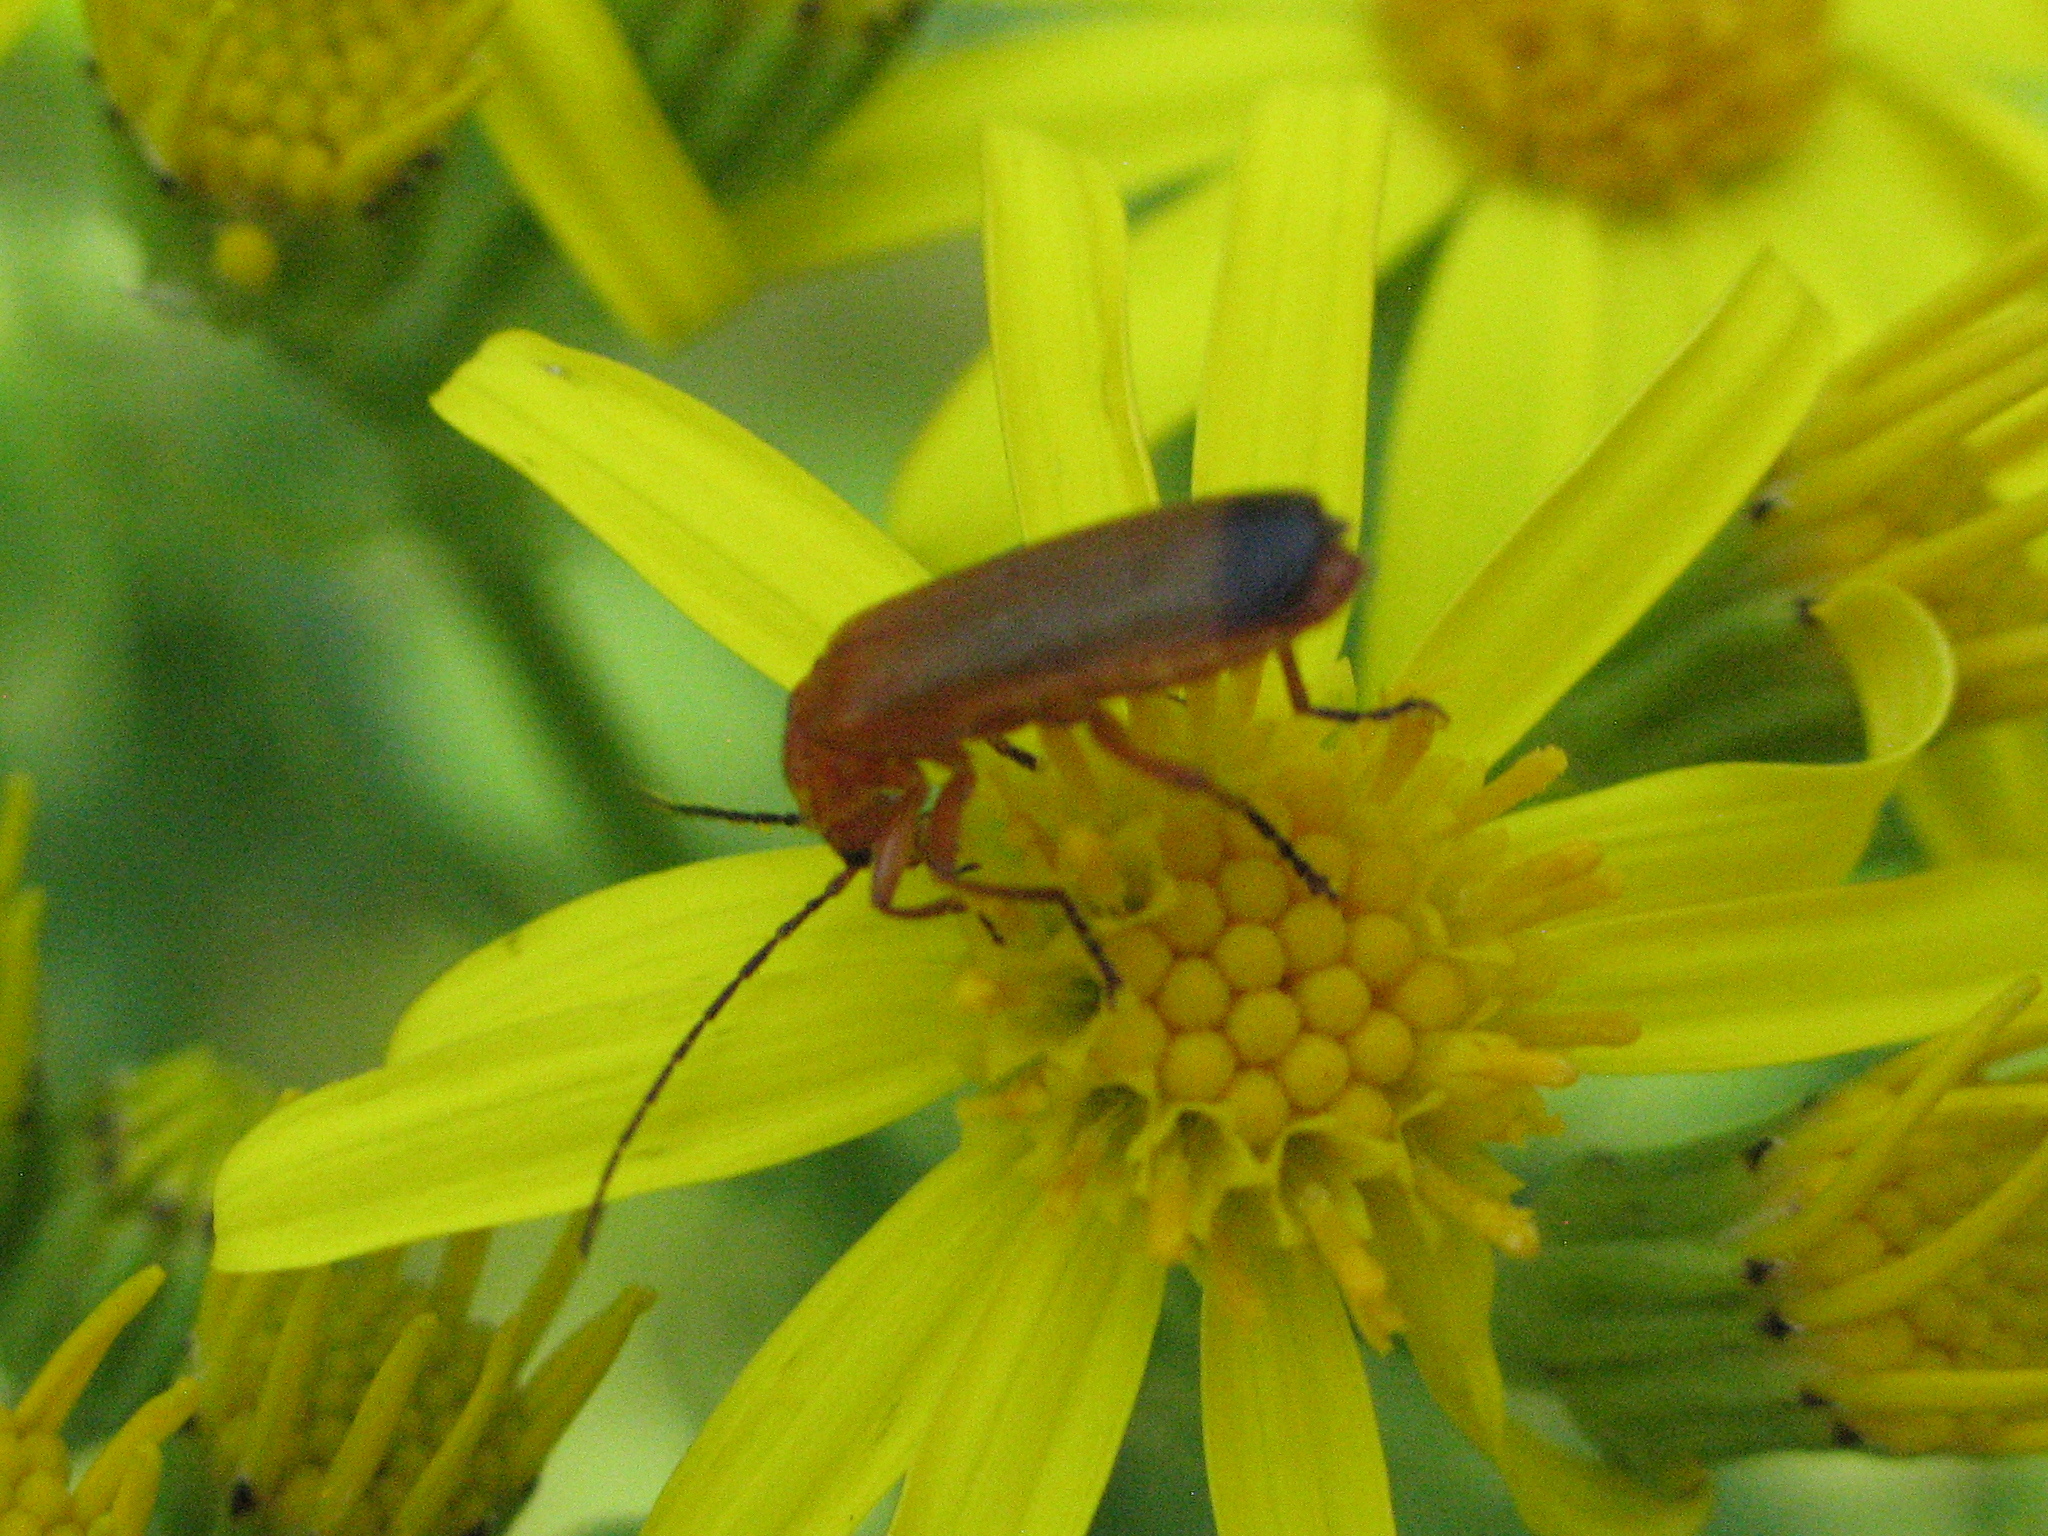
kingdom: Animalia
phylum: Arthropoda
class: Insecta
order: Coleoptera
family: Cantharidae
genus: Rhagonycha
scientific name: Rhagonycha fulva
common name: Common red soldier beetle
